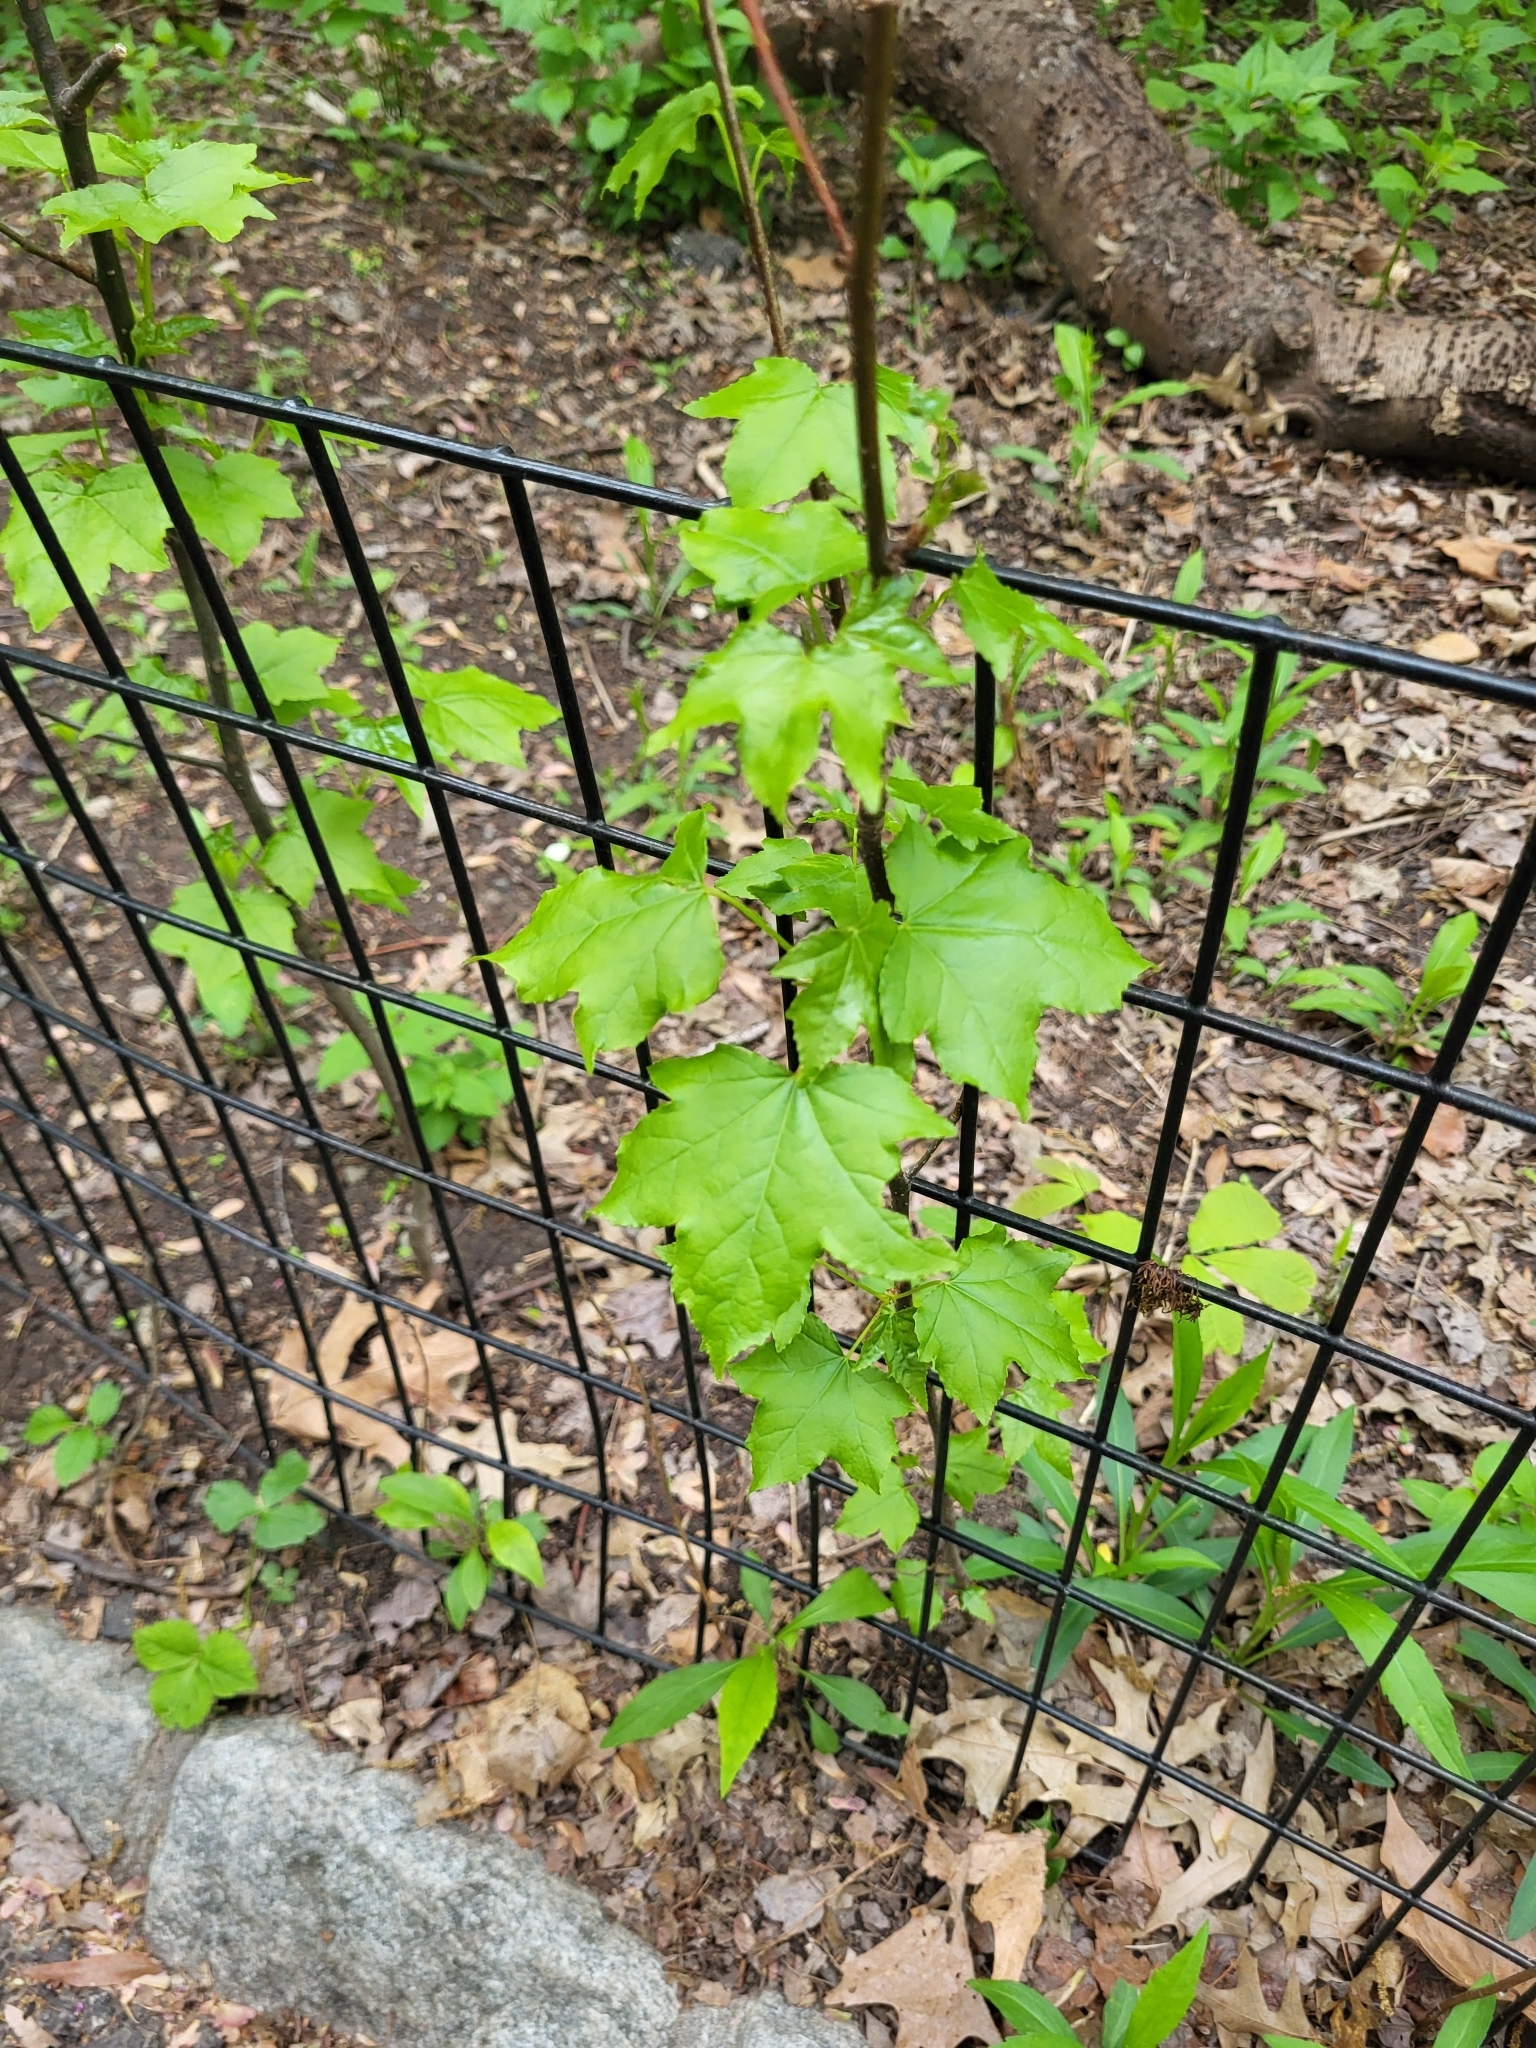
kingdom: Plantae
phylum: Tracheophyta
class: Magnoliopsida
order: Saxifragales
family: Altingiaceae
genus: Liquidambar
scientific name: Liquidambar styraciflua
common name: Sweet gum
